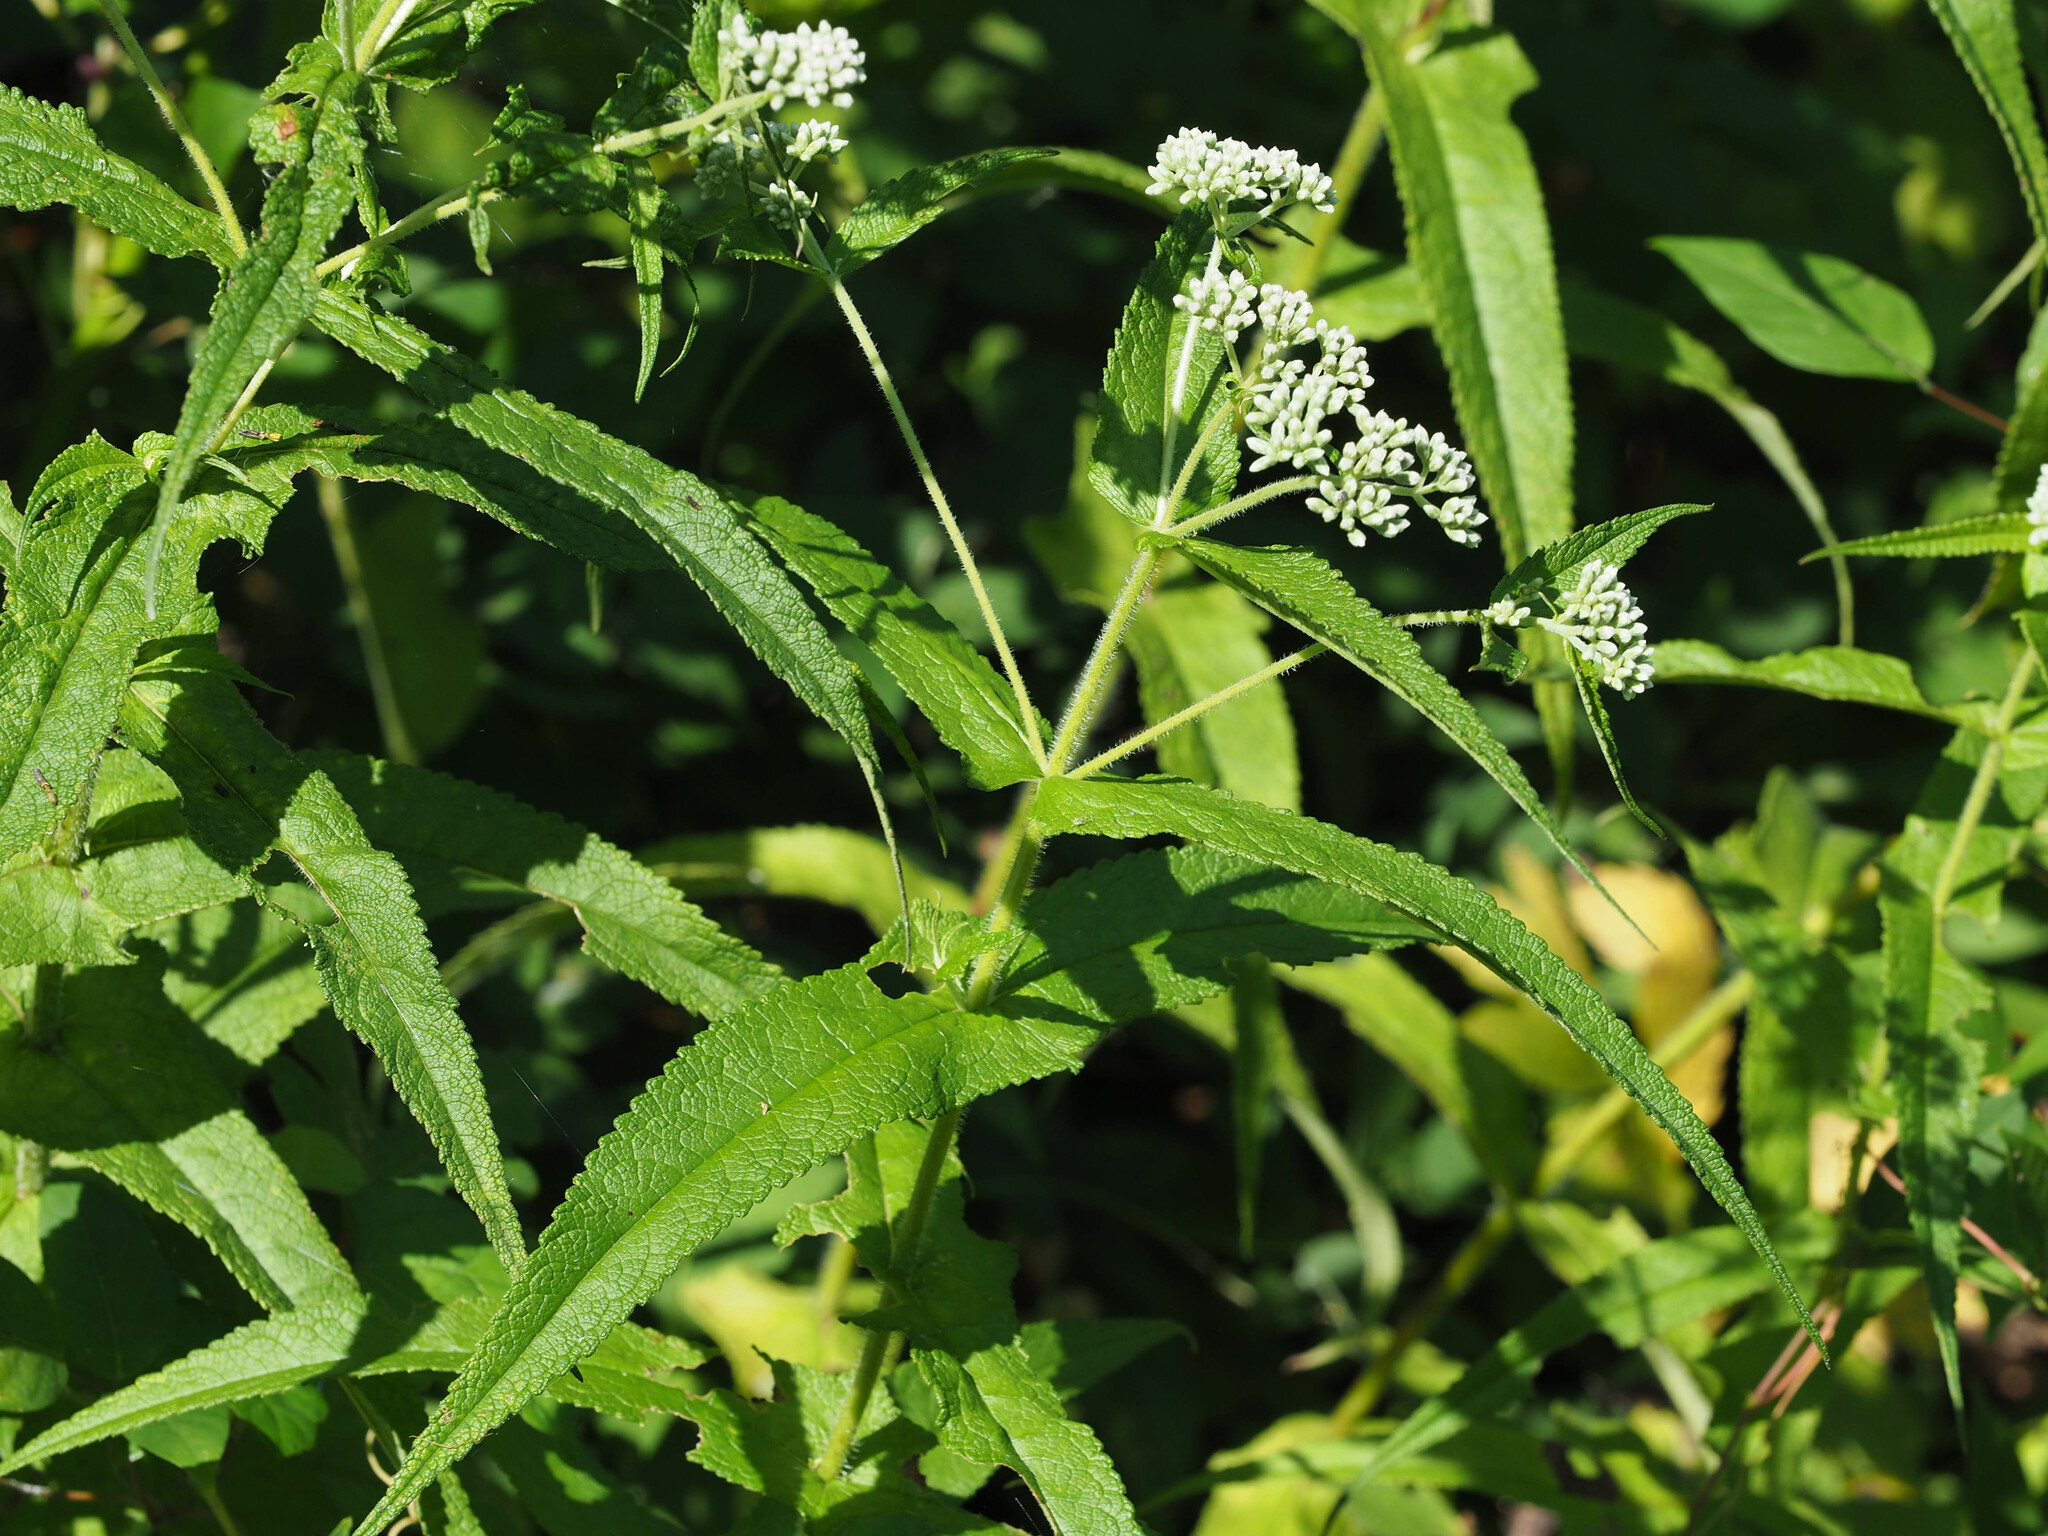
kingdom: Plantae
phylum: Tracheophyta
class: Magnoliopsida
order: Asterales
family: Asteraceae
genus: Eupatorium
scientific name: Eupatorium perfoliatum
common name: Boneset
